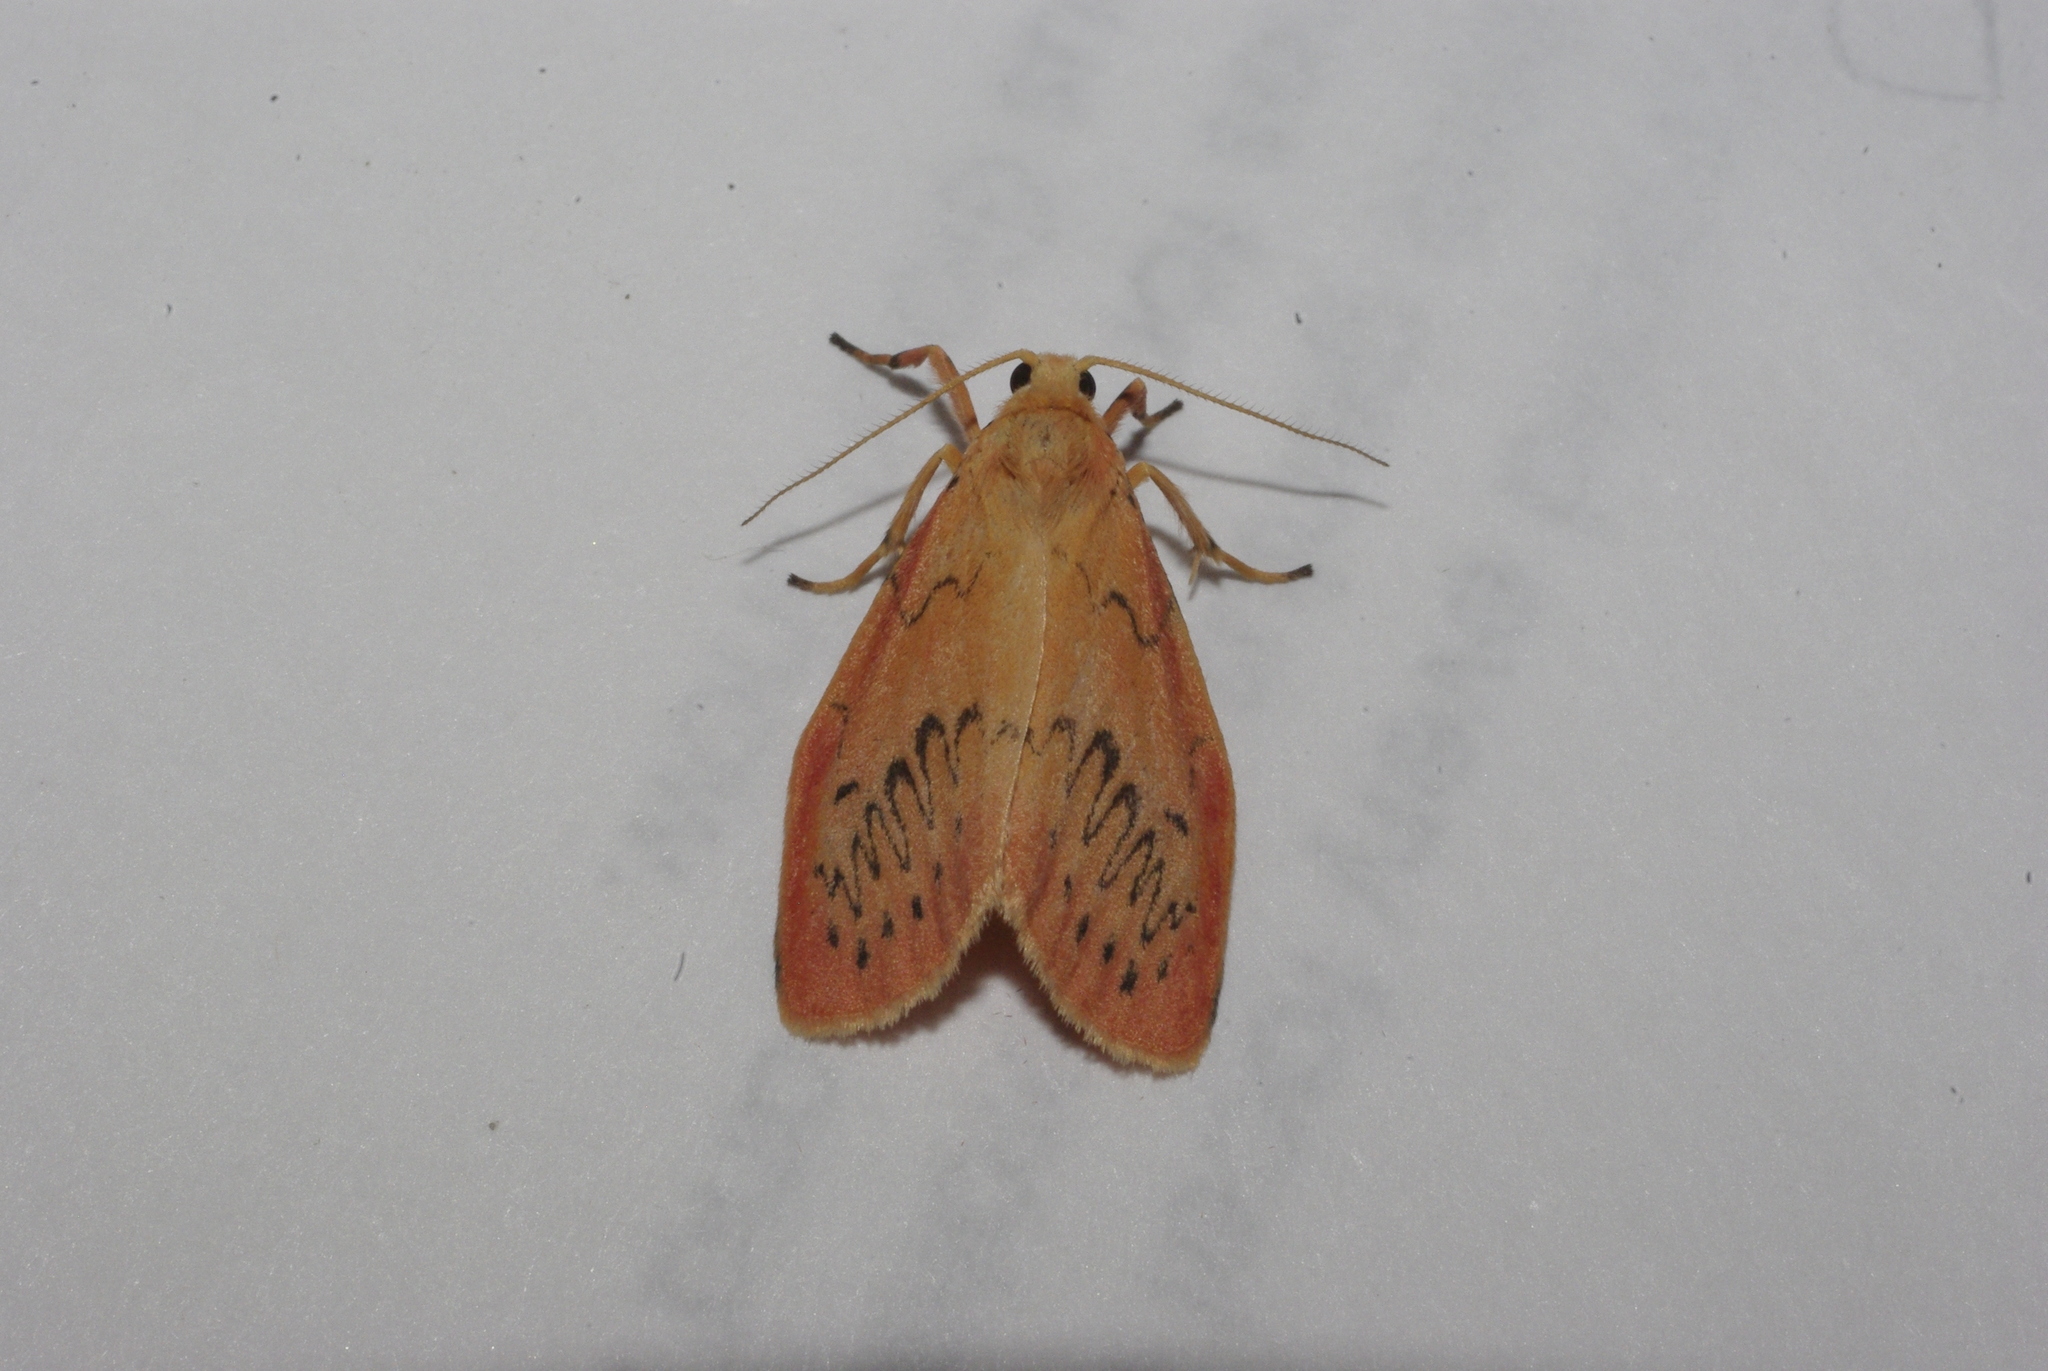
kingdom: Animalia
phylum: Arthropoda
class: Insecta
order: Lepidoptera
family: Erebidae
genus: Miltochrista
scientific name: Miltochrista miniata
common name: Rosy footman
